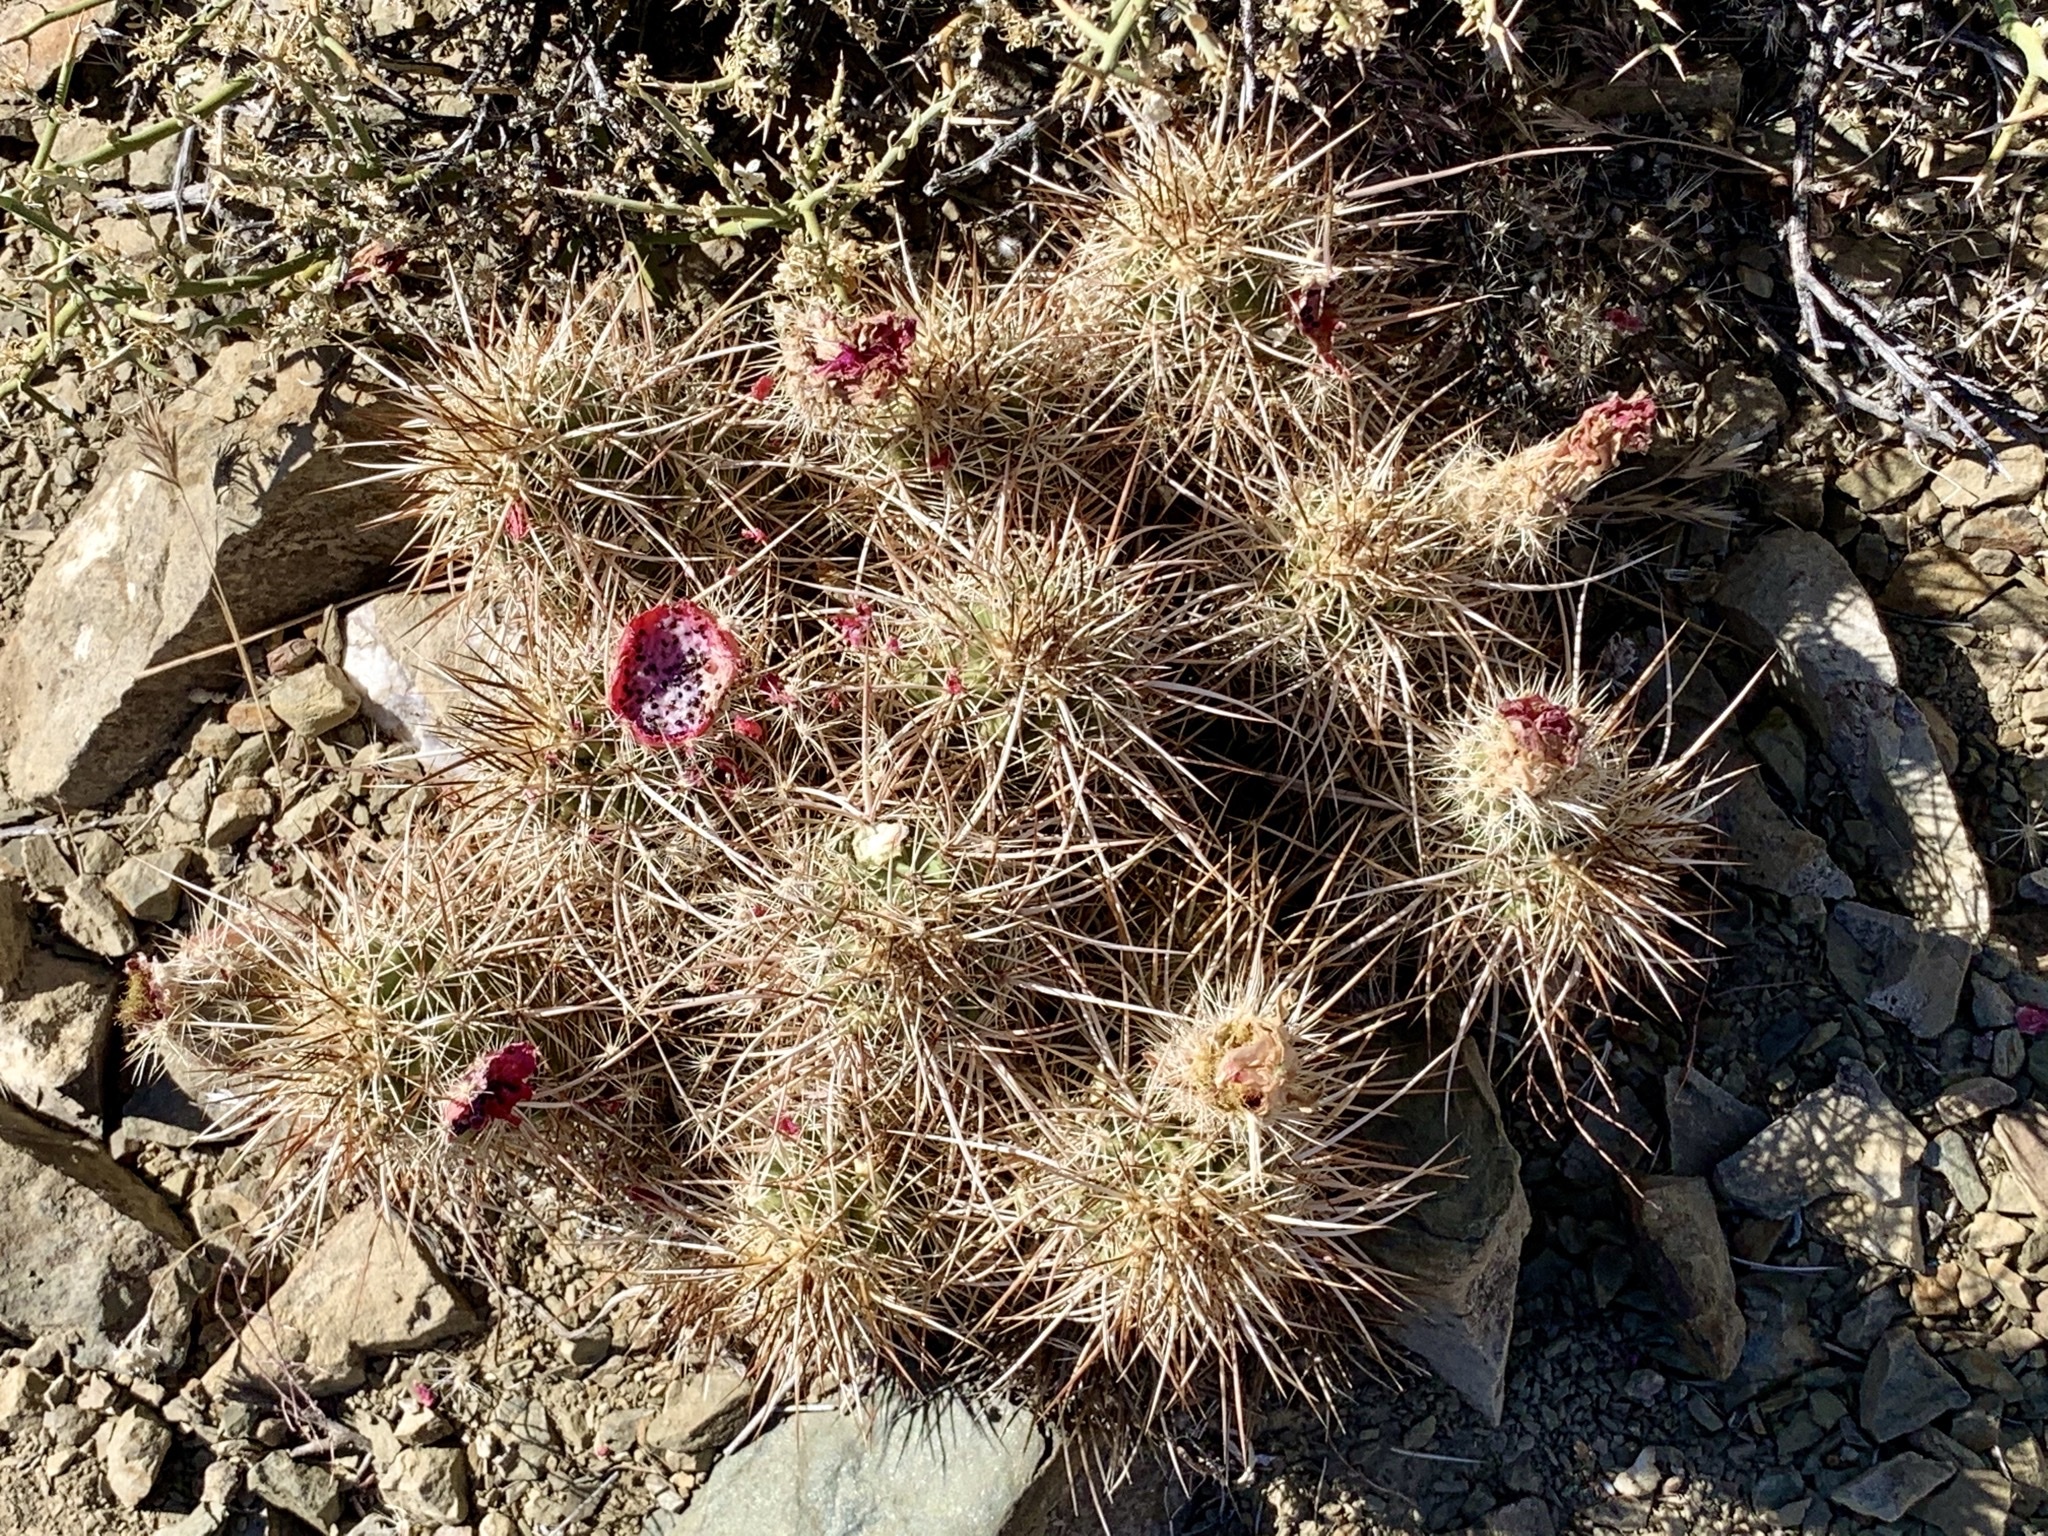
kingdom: Plantae
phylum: Tracheophyta
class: Magnoliopsida
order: Caryophyllales
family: Cactaceae
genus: Echinocereus
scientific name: Echinocereus engelmannii
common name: Engelmann's hedgehog cactus
